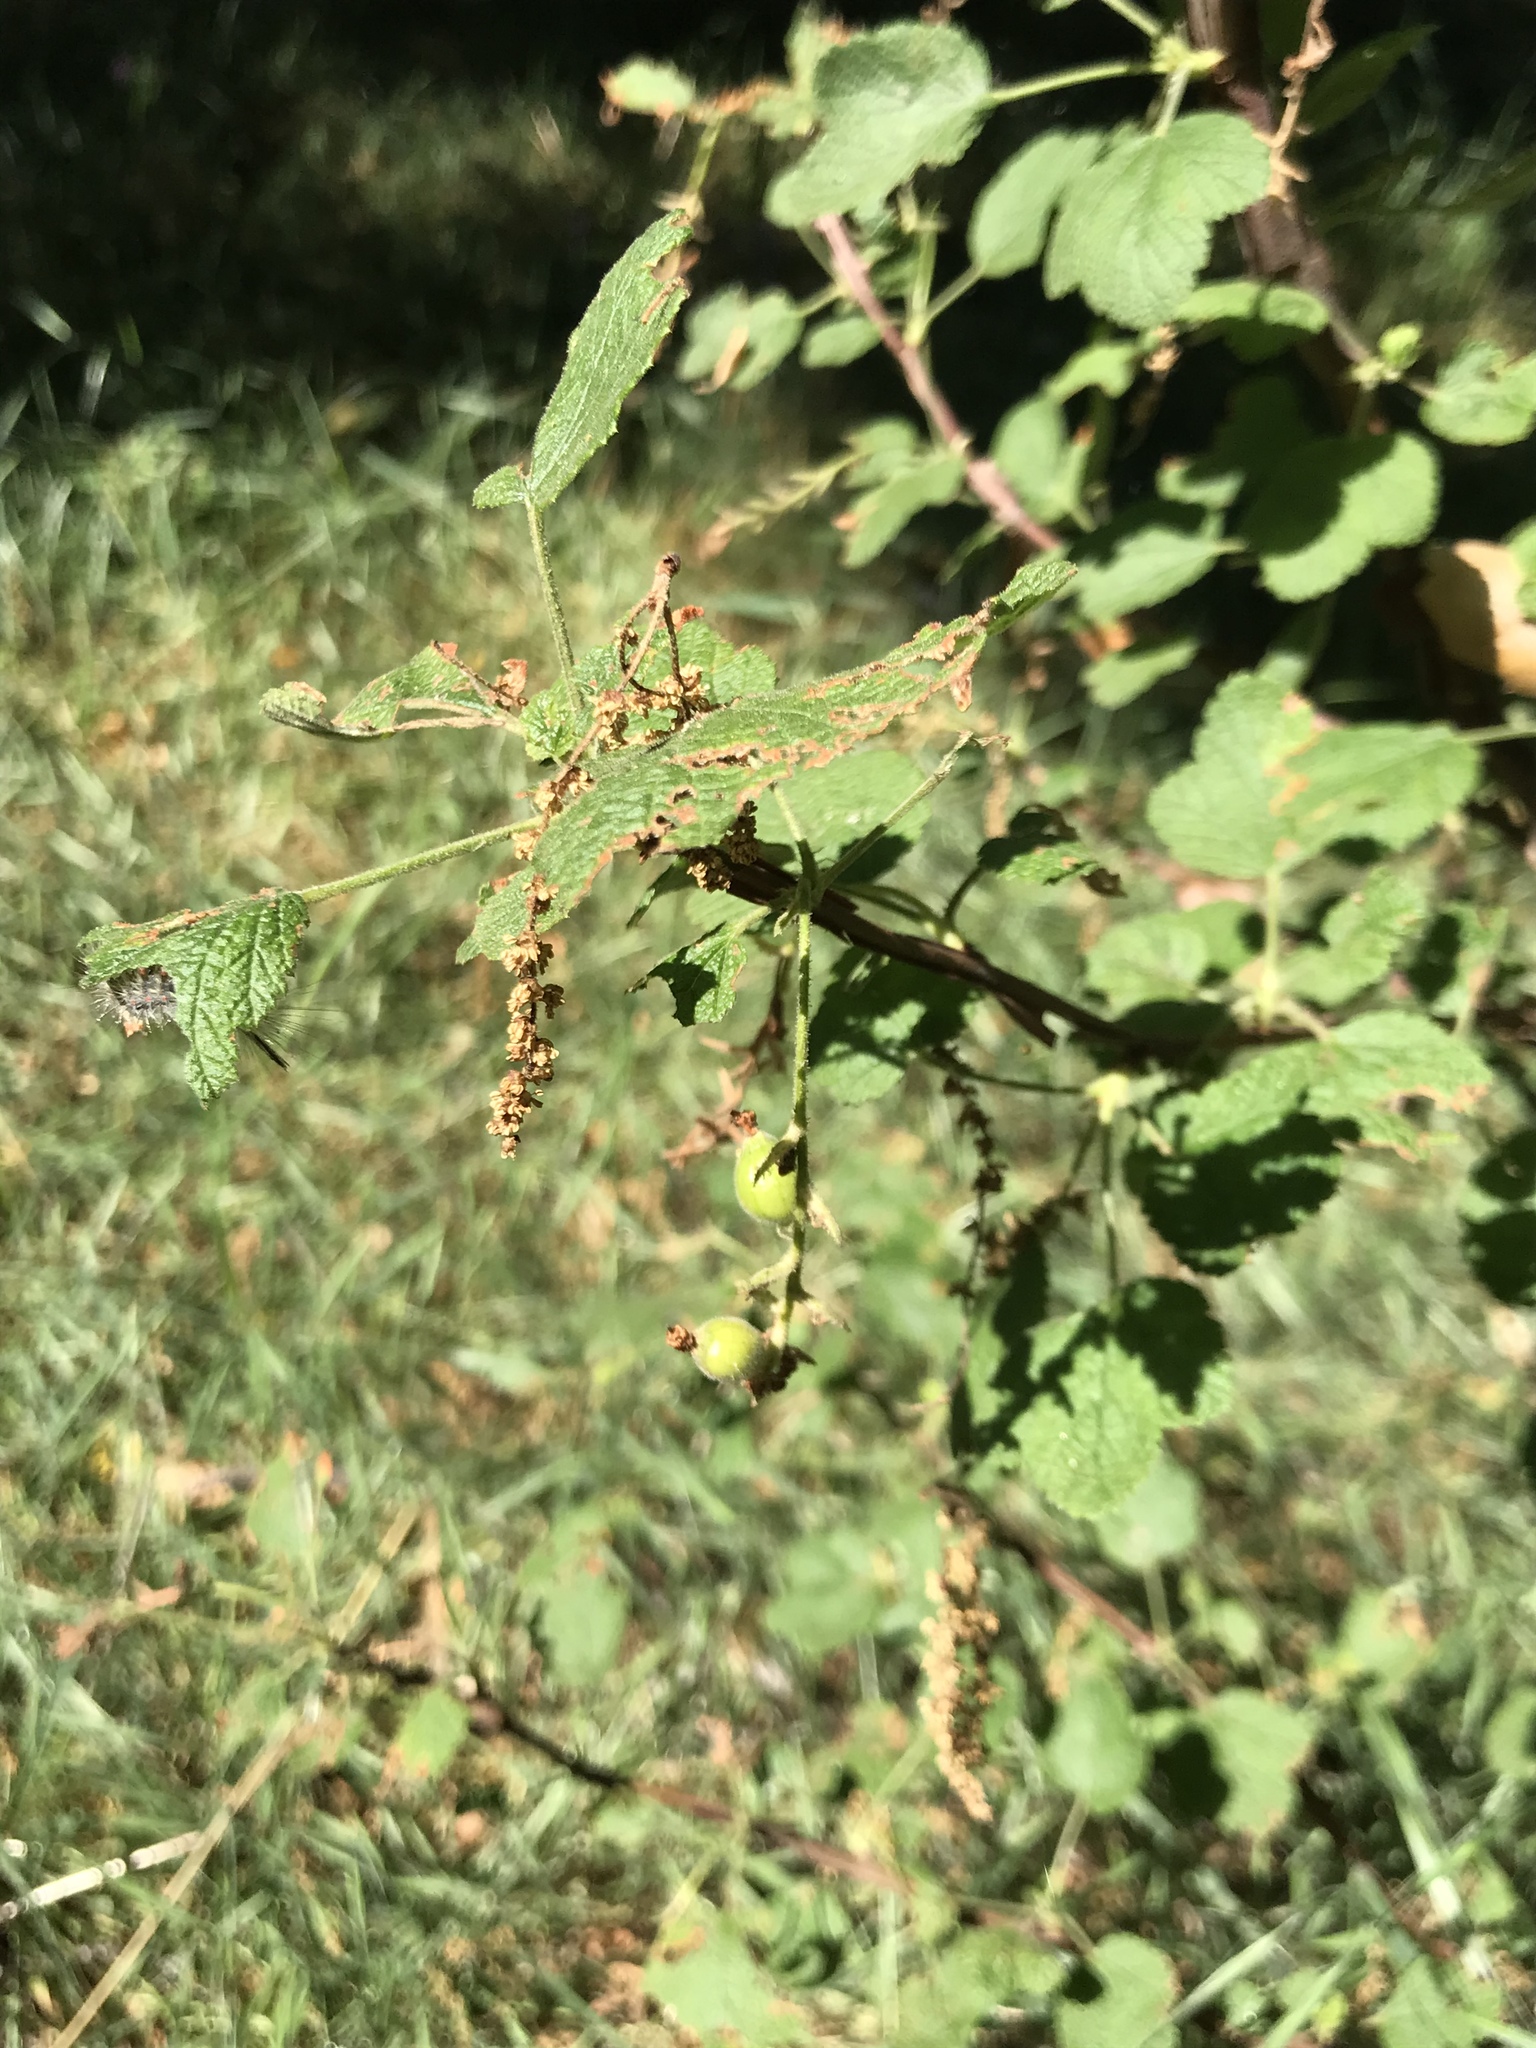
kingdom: Plantae
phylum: Tracheophyta
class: Magnoliopsida
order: Saxifragales
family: Grossulariaceae
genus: Ribes
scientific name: Ribes indecorum
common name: White-flower currant
